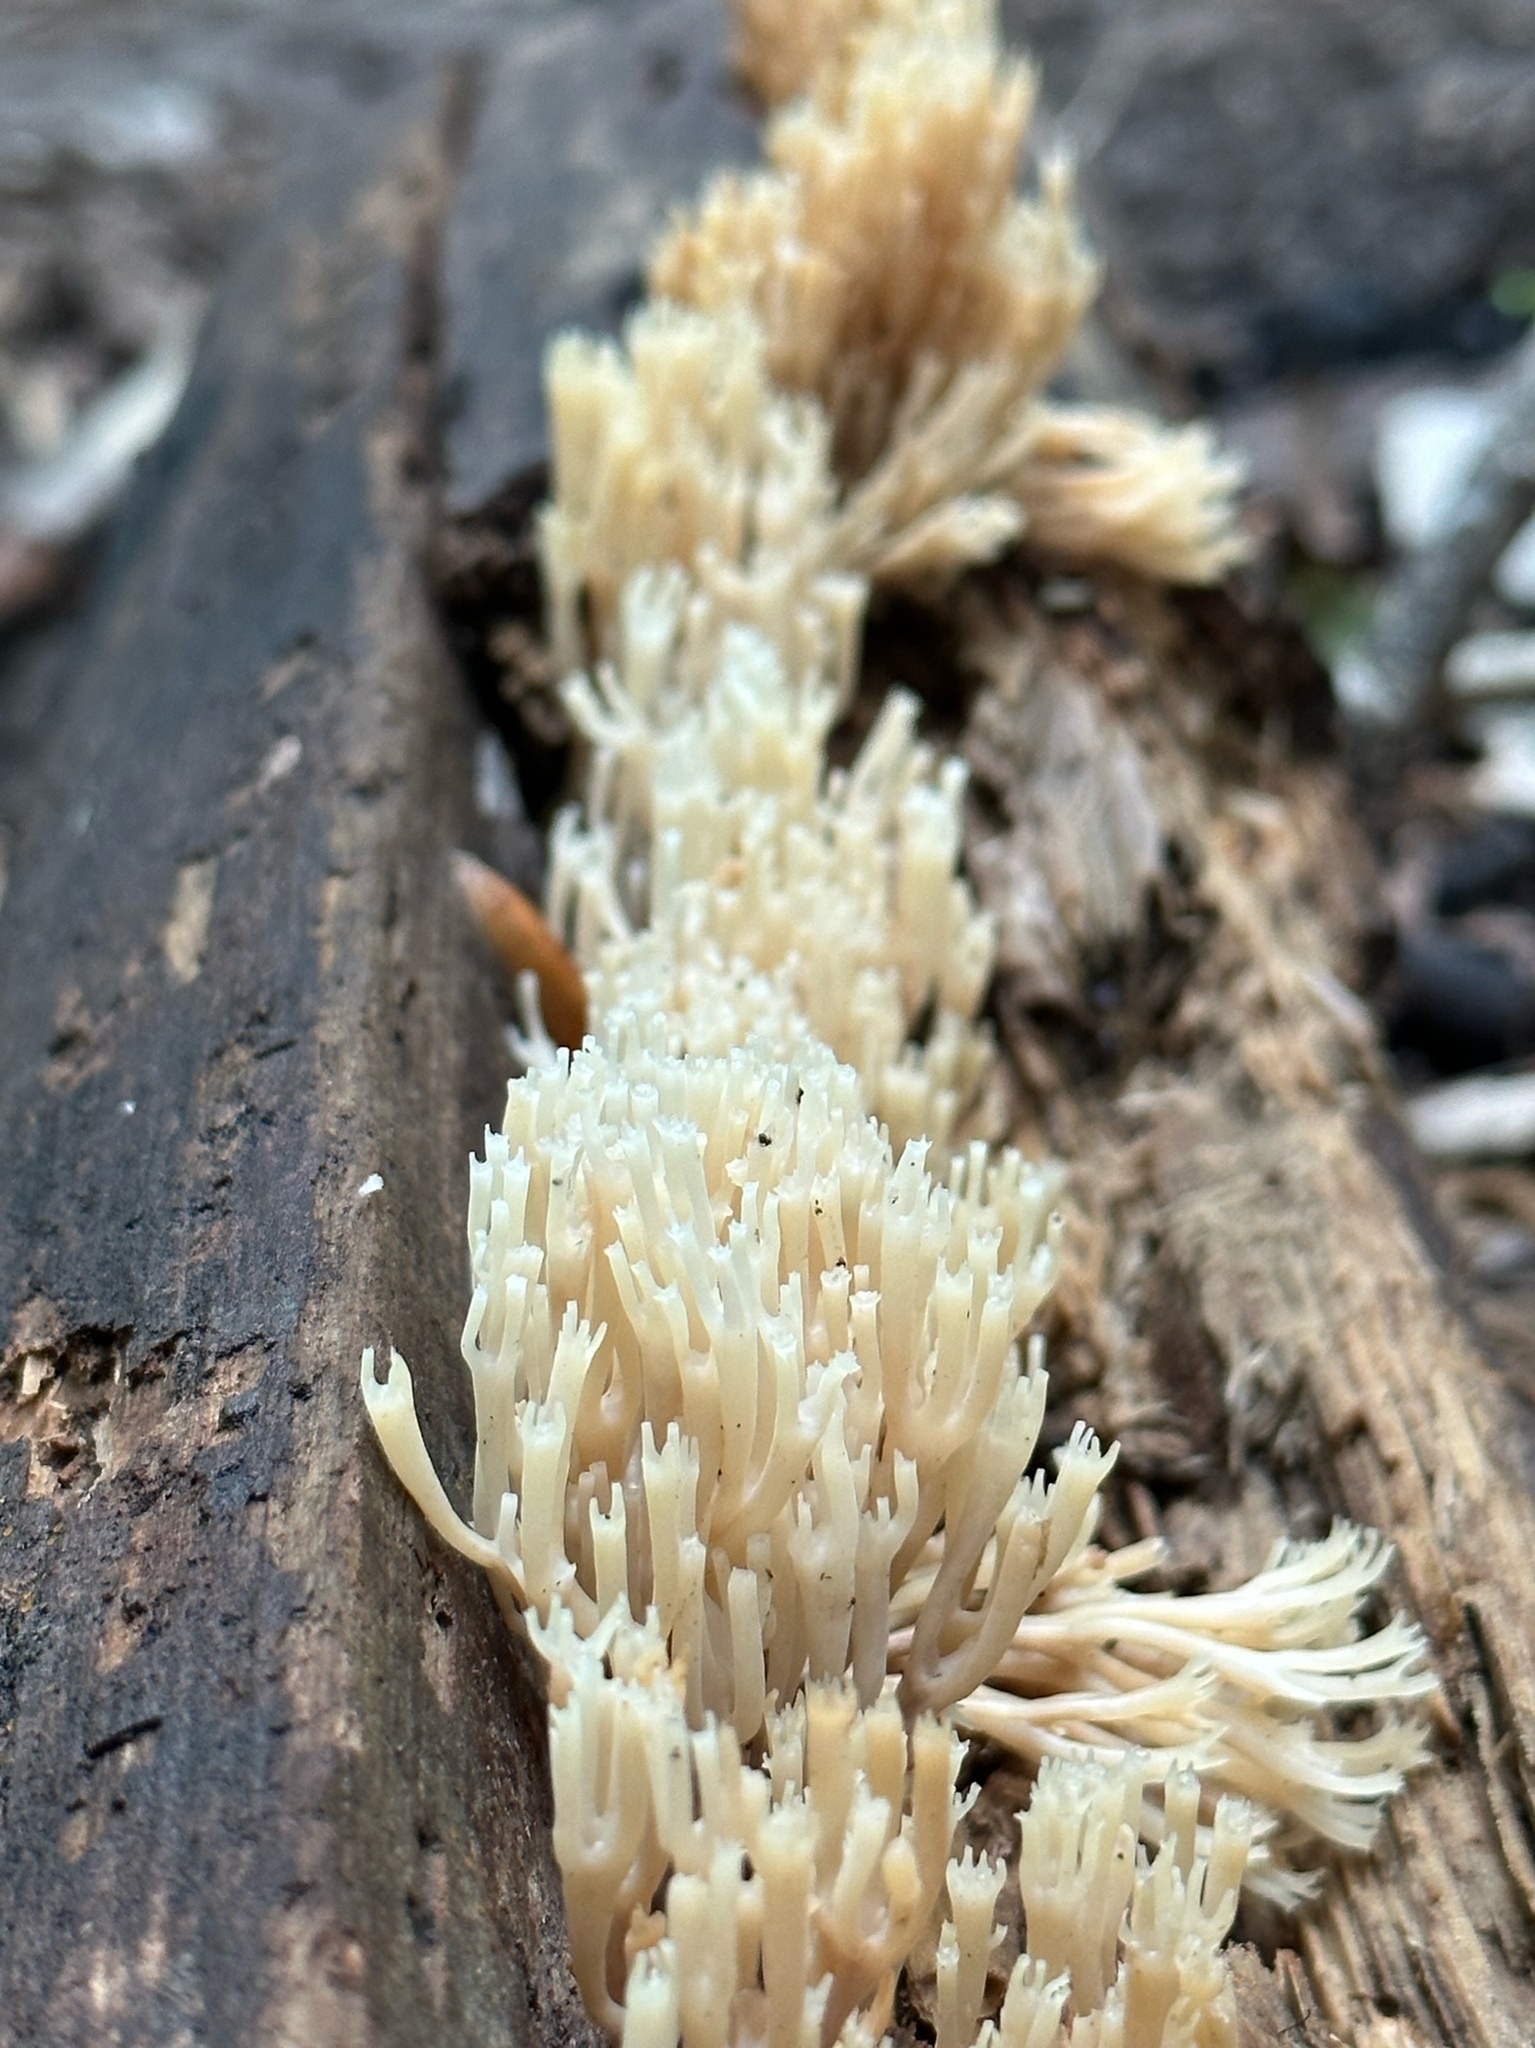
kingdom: Fungi
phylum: Basidiomycota
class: Agaricomycetes
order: Russulales
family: Auriscalpiaceae
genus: Artomyces
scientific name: Artomyces pyxidatus
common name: Crown-tipped coral fungus
